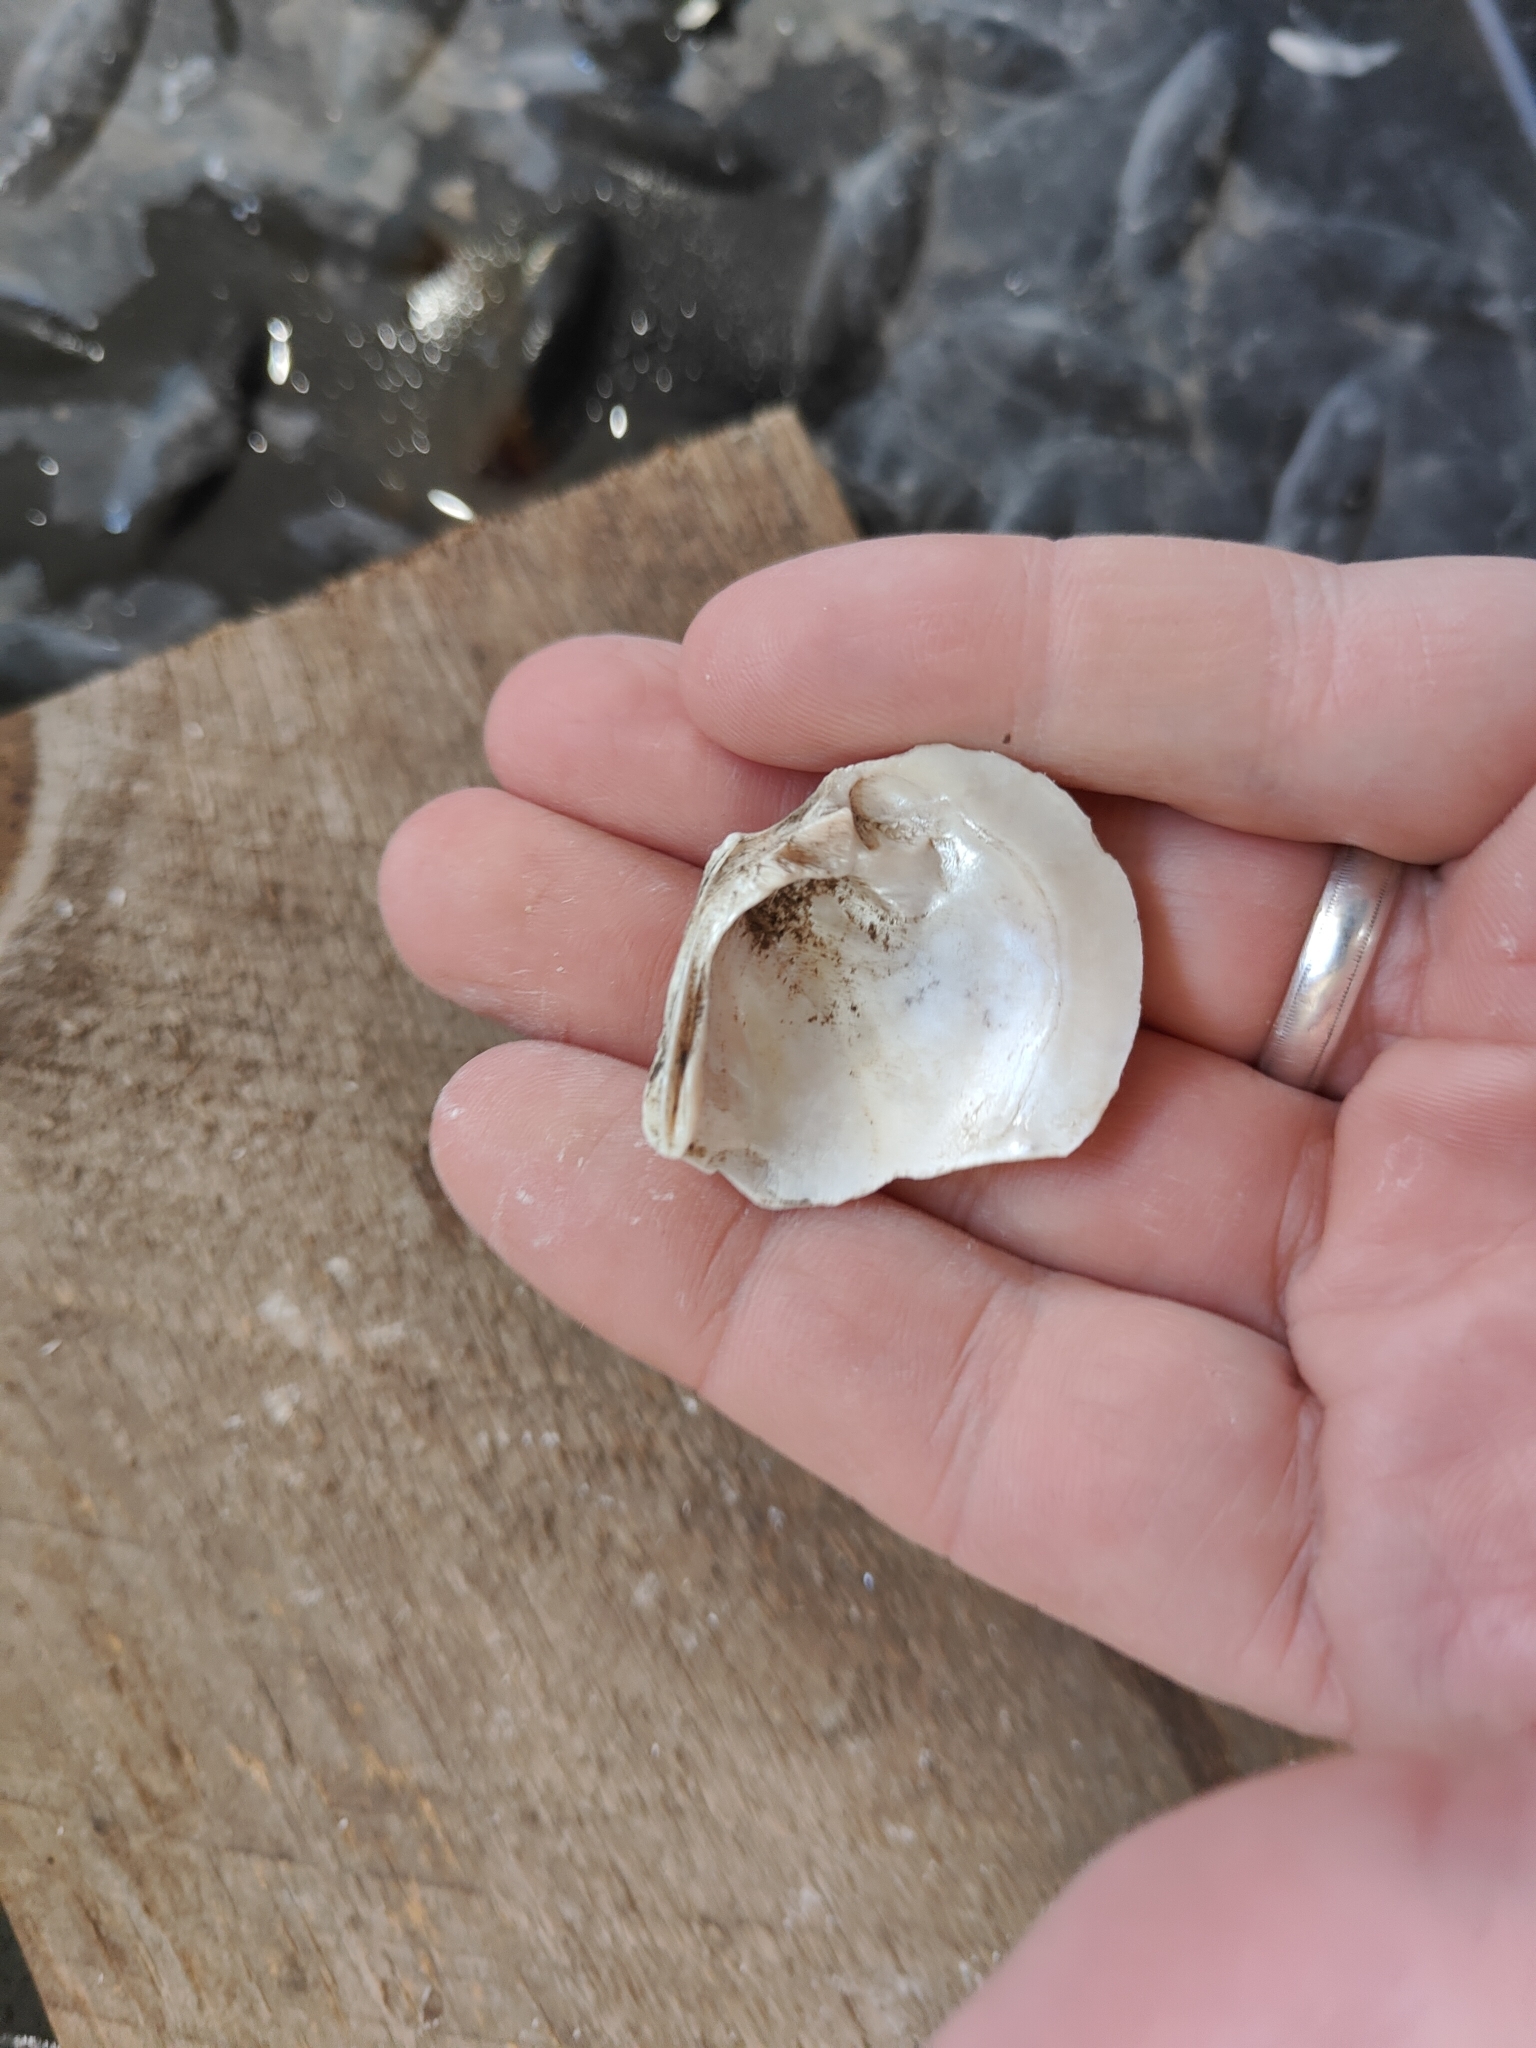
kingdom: Animalia
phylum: Mollusca
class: Bivalvia
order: Unionida
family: Unionidae
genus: Fusconaia
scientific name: Fusconaia flava
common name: Wabash pigtoe
